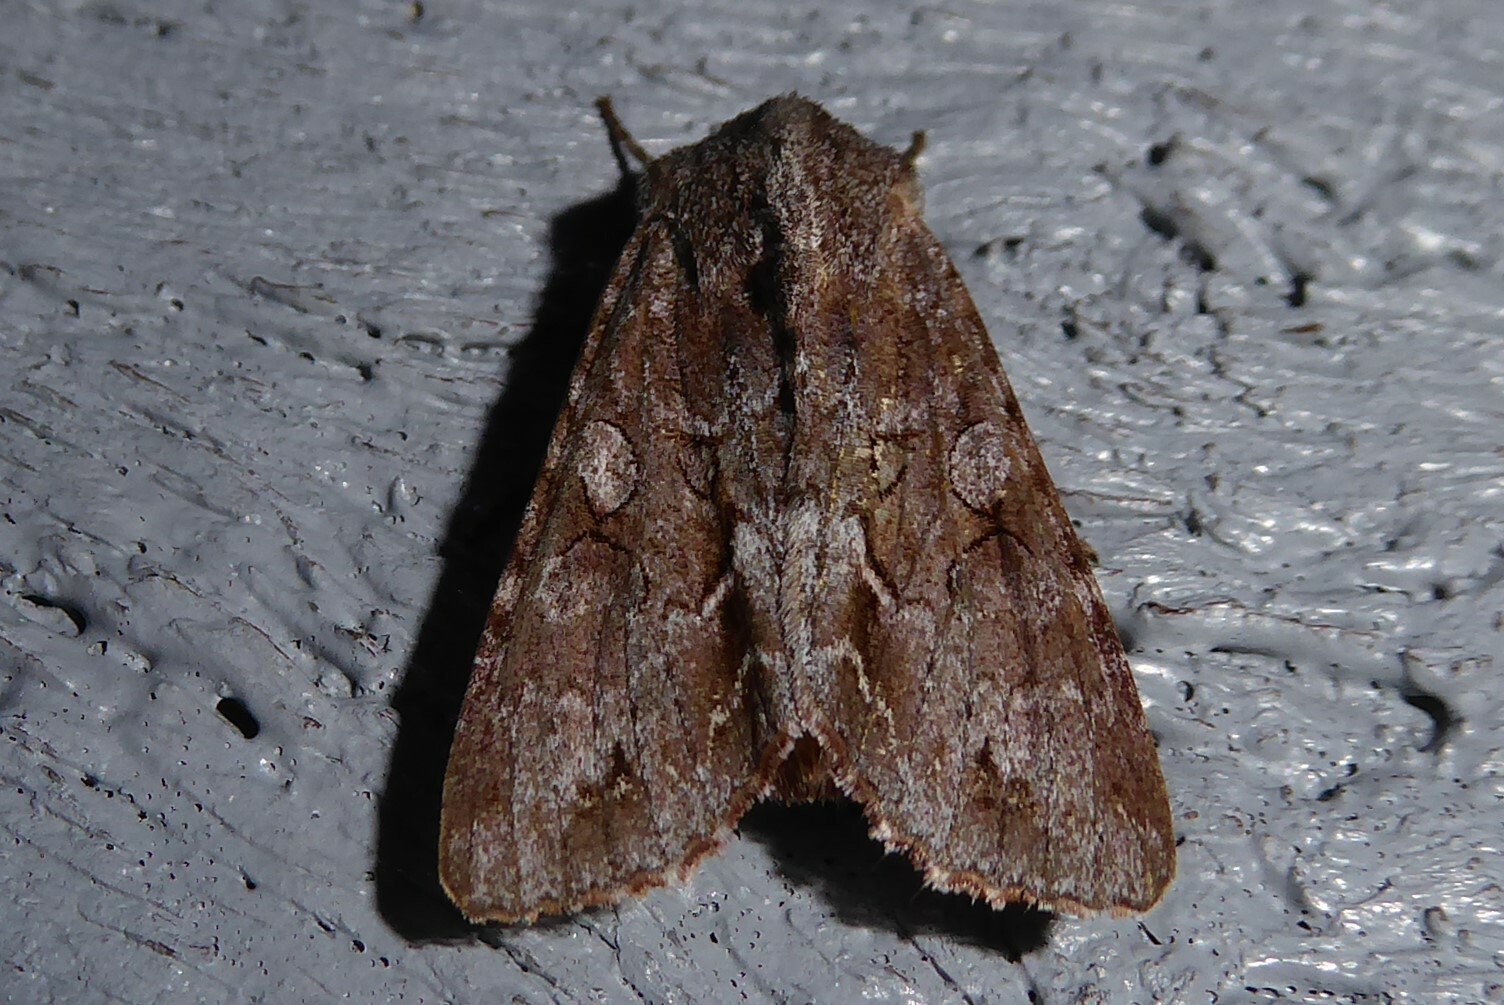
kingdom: Animalia
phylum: Arthropoda
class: Insecta
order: Lepidoptera
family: Noctuidae
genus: Ichneutica
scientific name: Ichneutica
